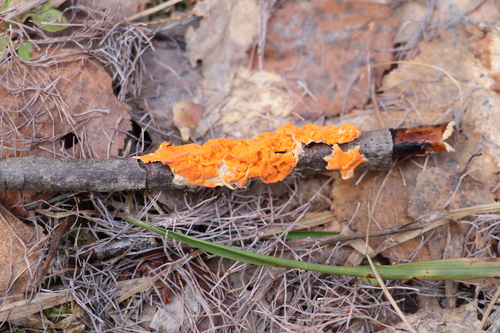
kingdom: Fungi
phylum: Basidiomycota
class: Agaricomycetes
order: Russulales
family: Peniophoraceae
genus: Peniophora
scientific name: Peniophora laurentii
